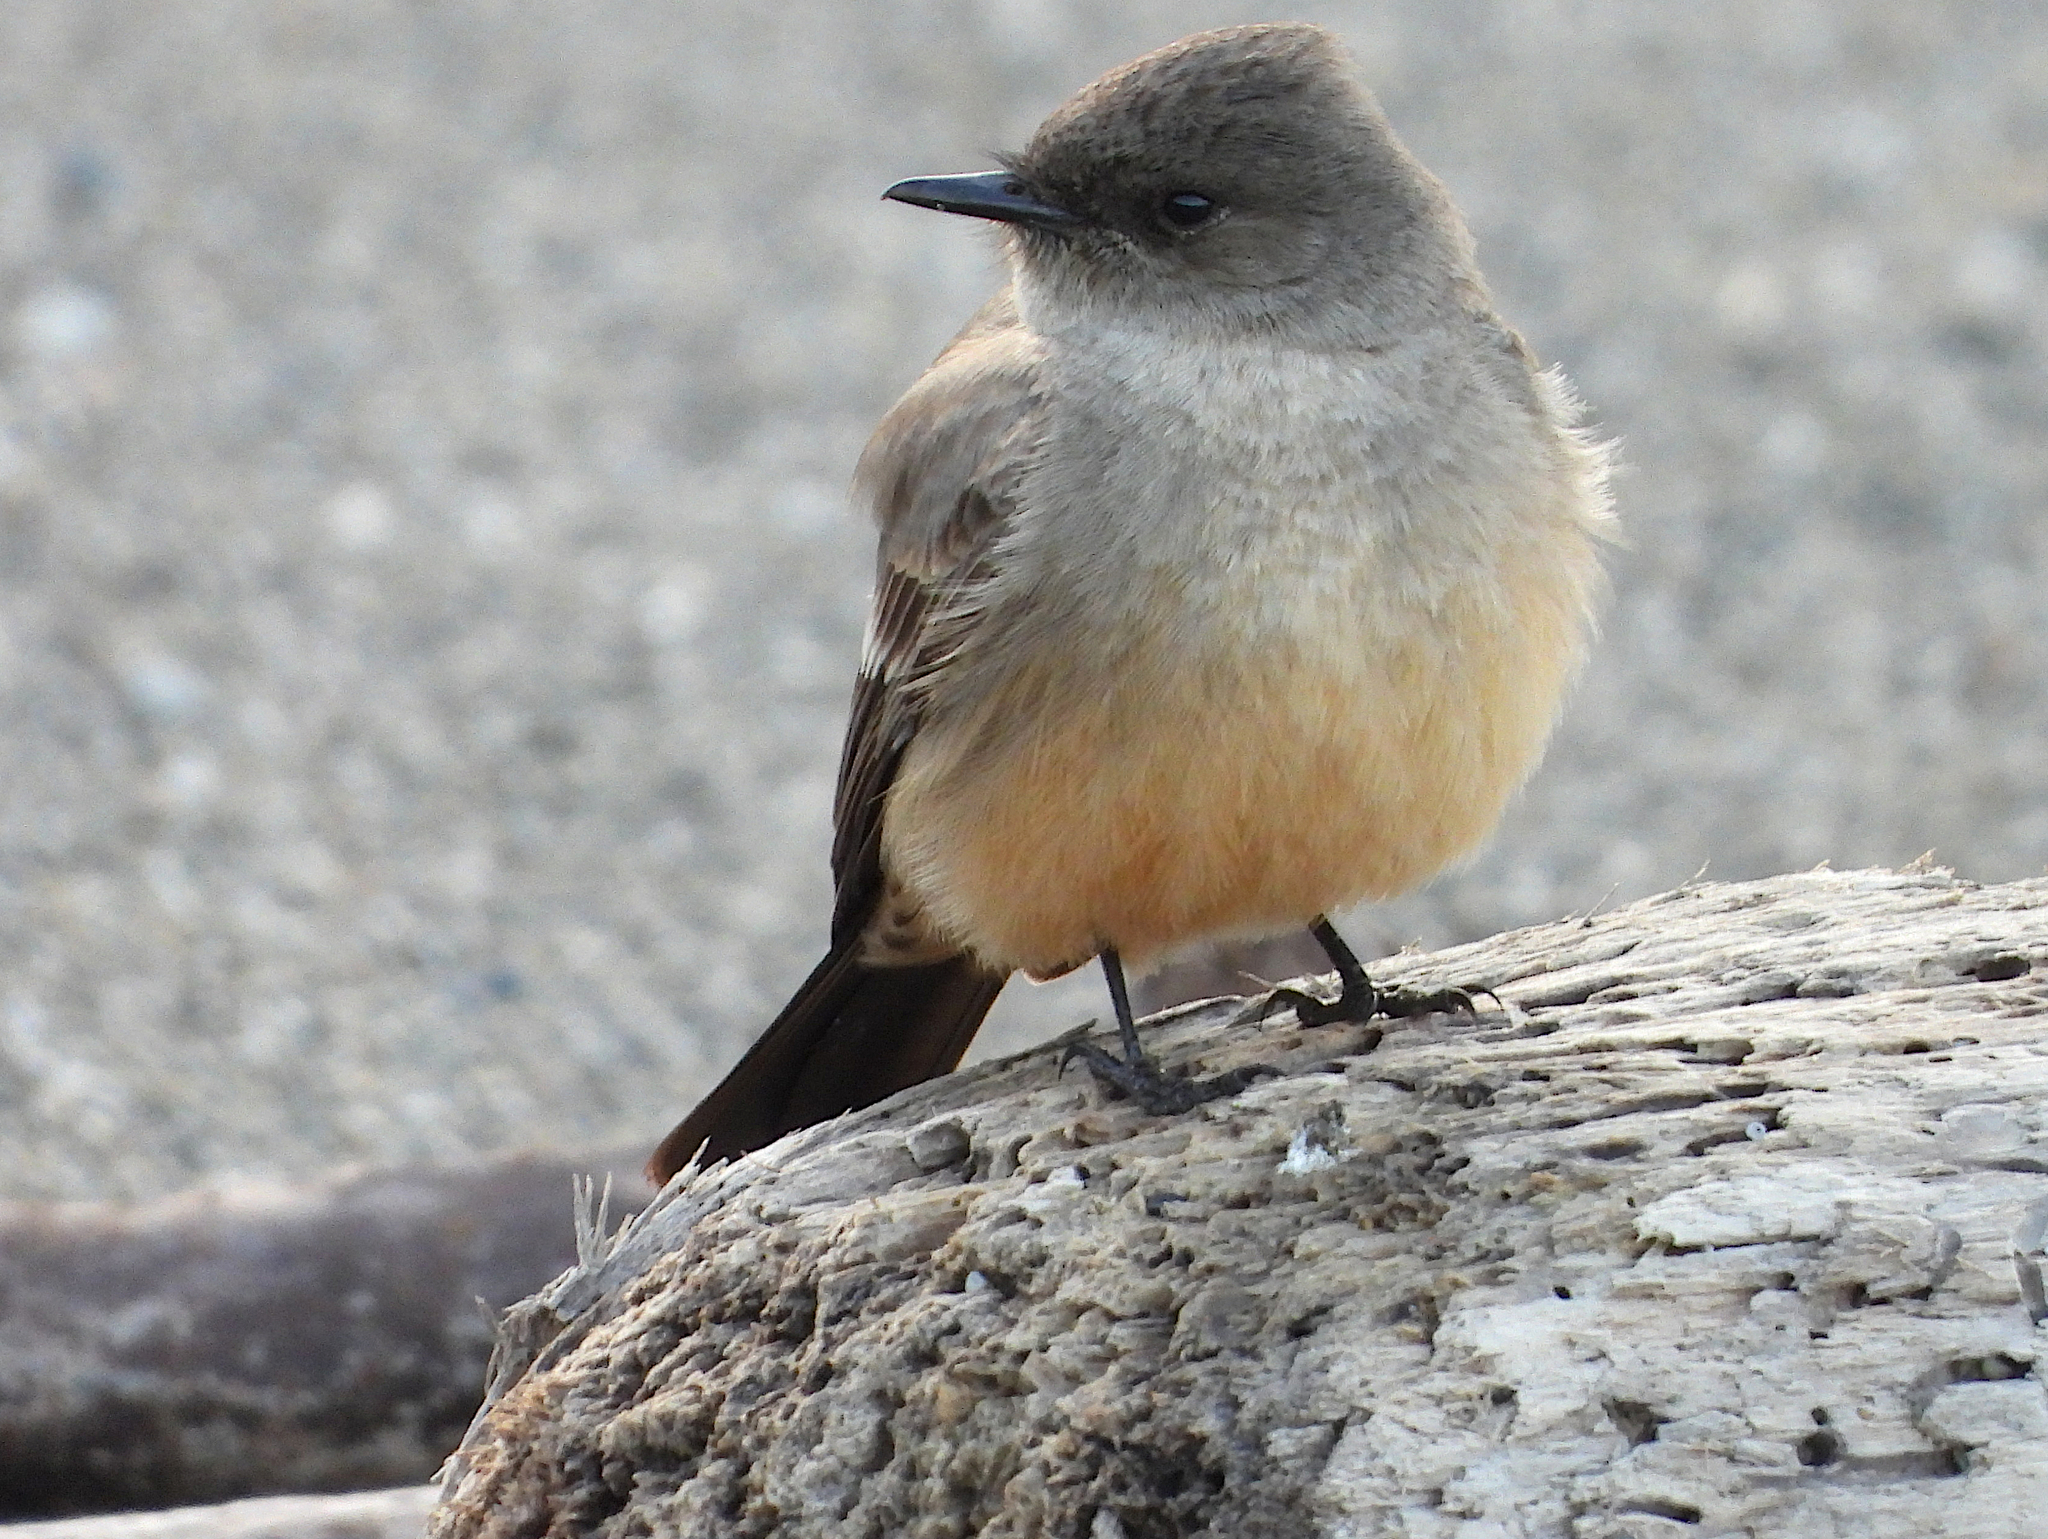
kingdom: Animalia
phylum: Chordata
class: Aves
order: Passeriformes
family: Tyrannidae
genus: Sayornis
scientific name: Sayornis saya
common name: Say's phoebe
